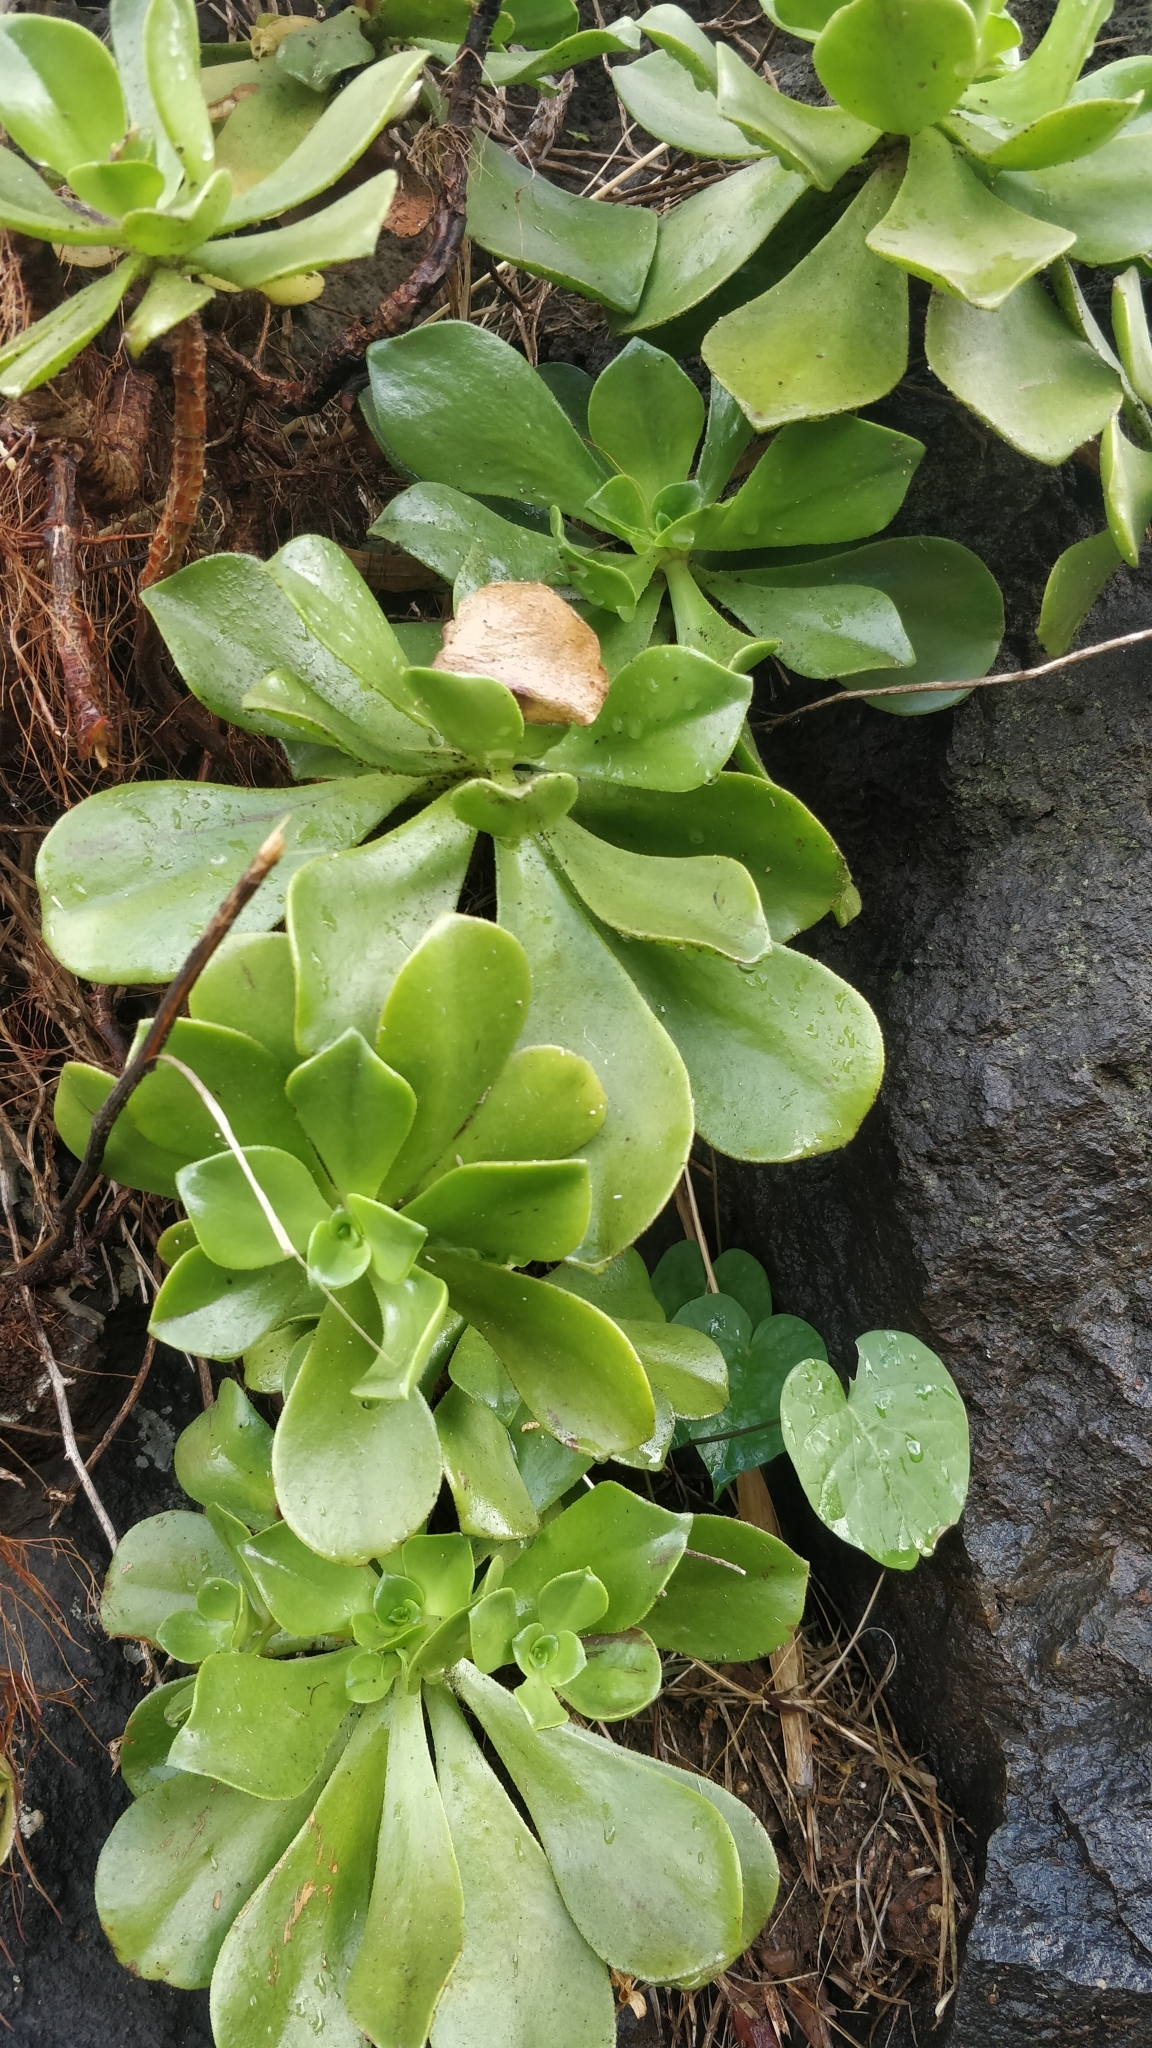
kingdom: Plantae
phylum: Tracheophyta
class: Magnoliopsida
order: Saxifragales
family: Crassulaceae
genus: Aeonium
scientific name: Aeonium glutinosum
